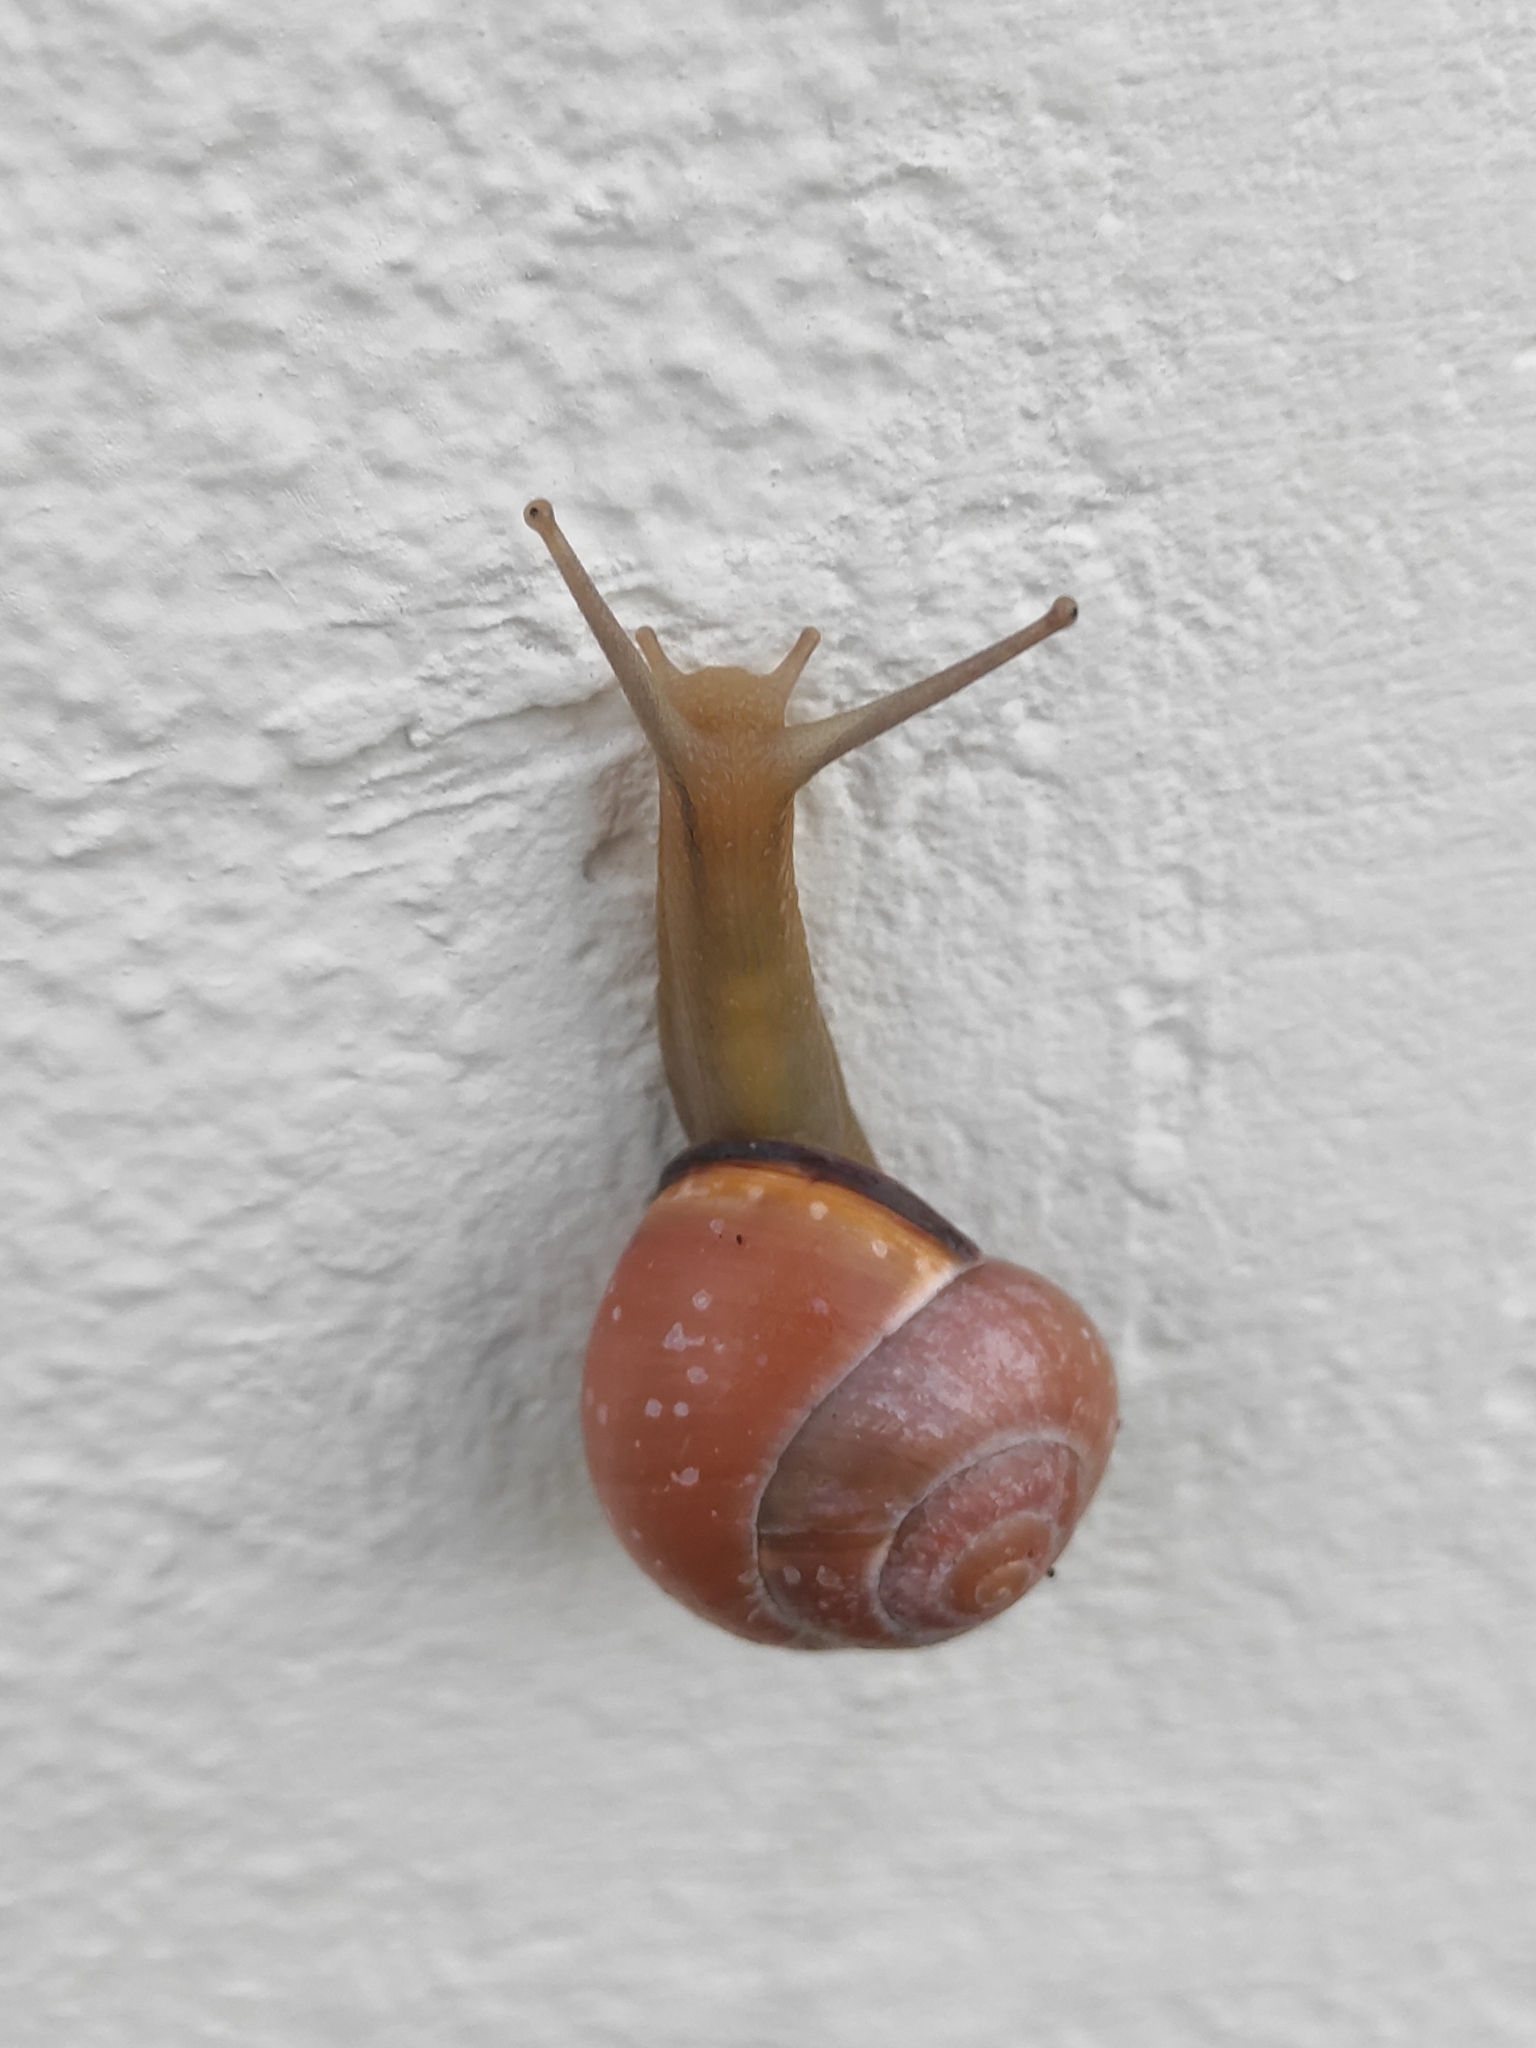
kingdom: Animalia
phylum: Mollusca
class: Gastropoda
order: Stylommatophora
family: Helicidae
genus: Cepaea
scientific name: Cepaea nemoralis
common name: Grovesnail
